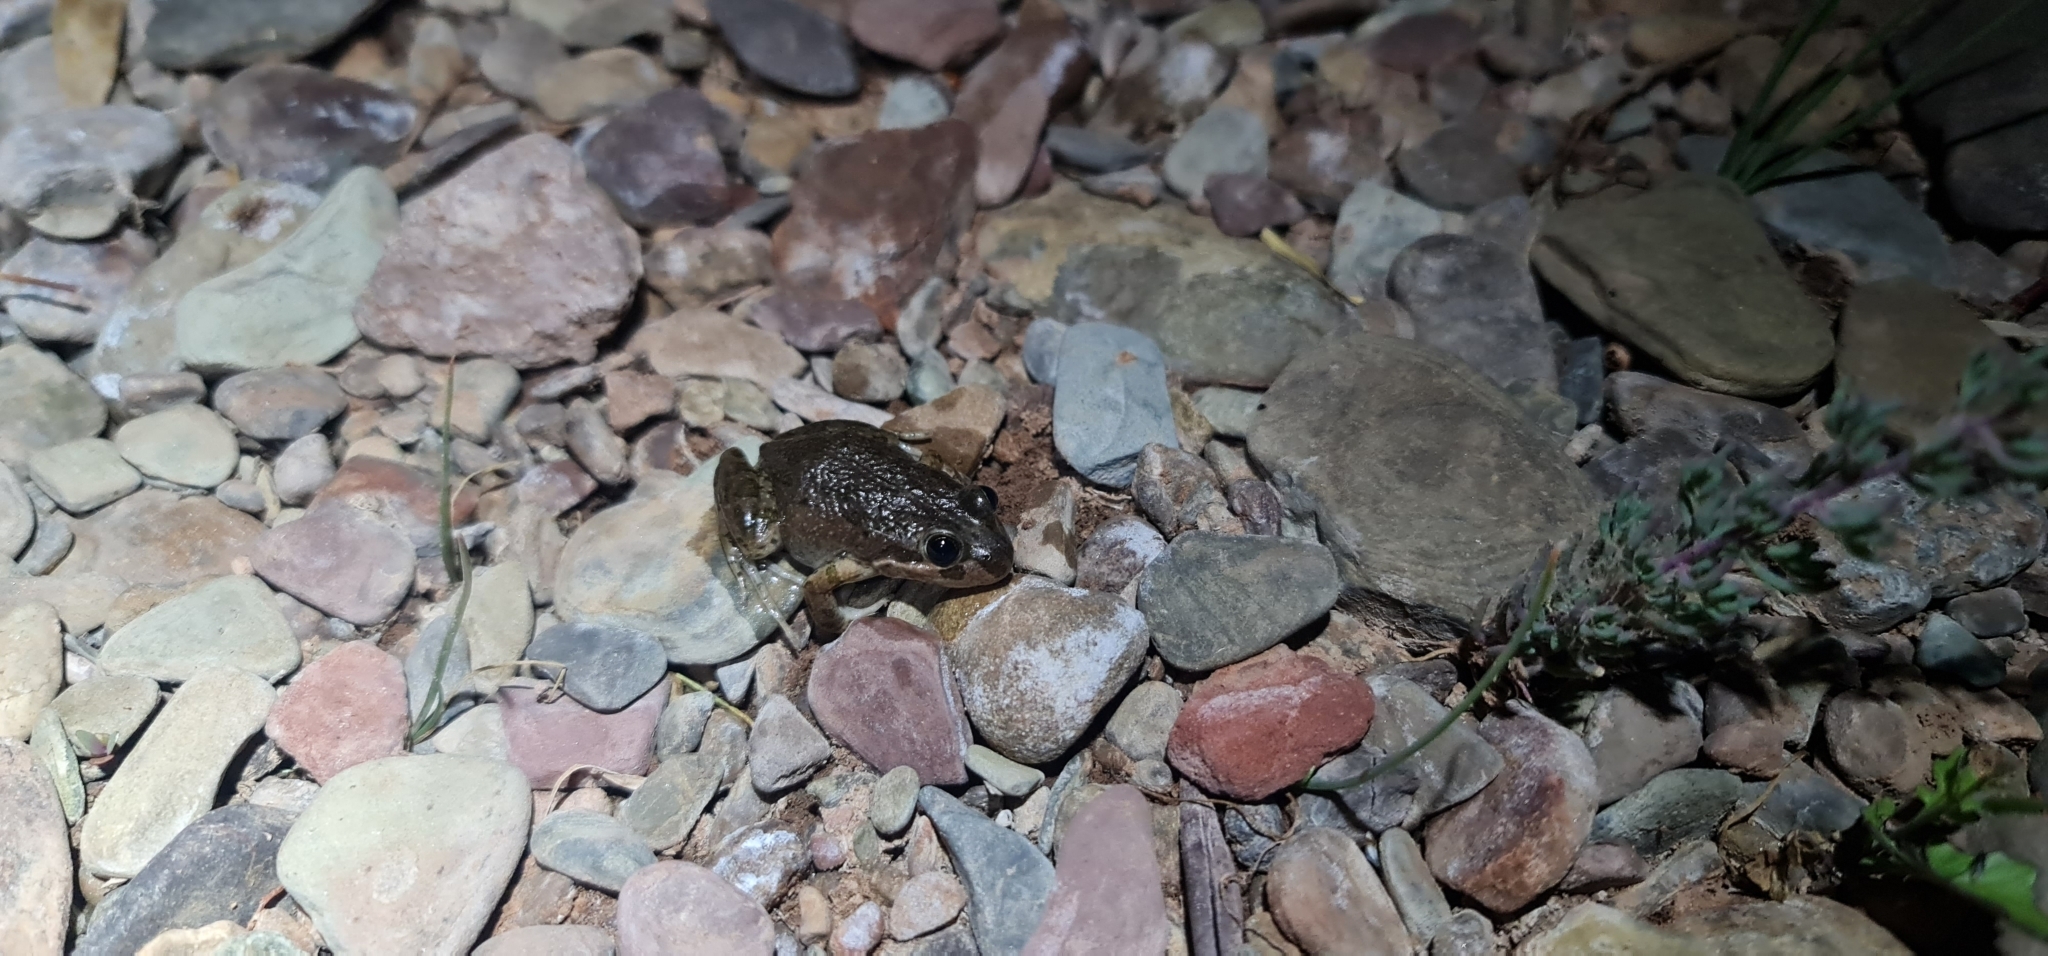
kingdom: Animalia
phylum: Chordata
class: Amphibia
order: Anura
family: Limnodynastidae
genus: Limnodynastes
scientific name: Limnodynastes tasmaniensis
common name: Spotted marsh frog
